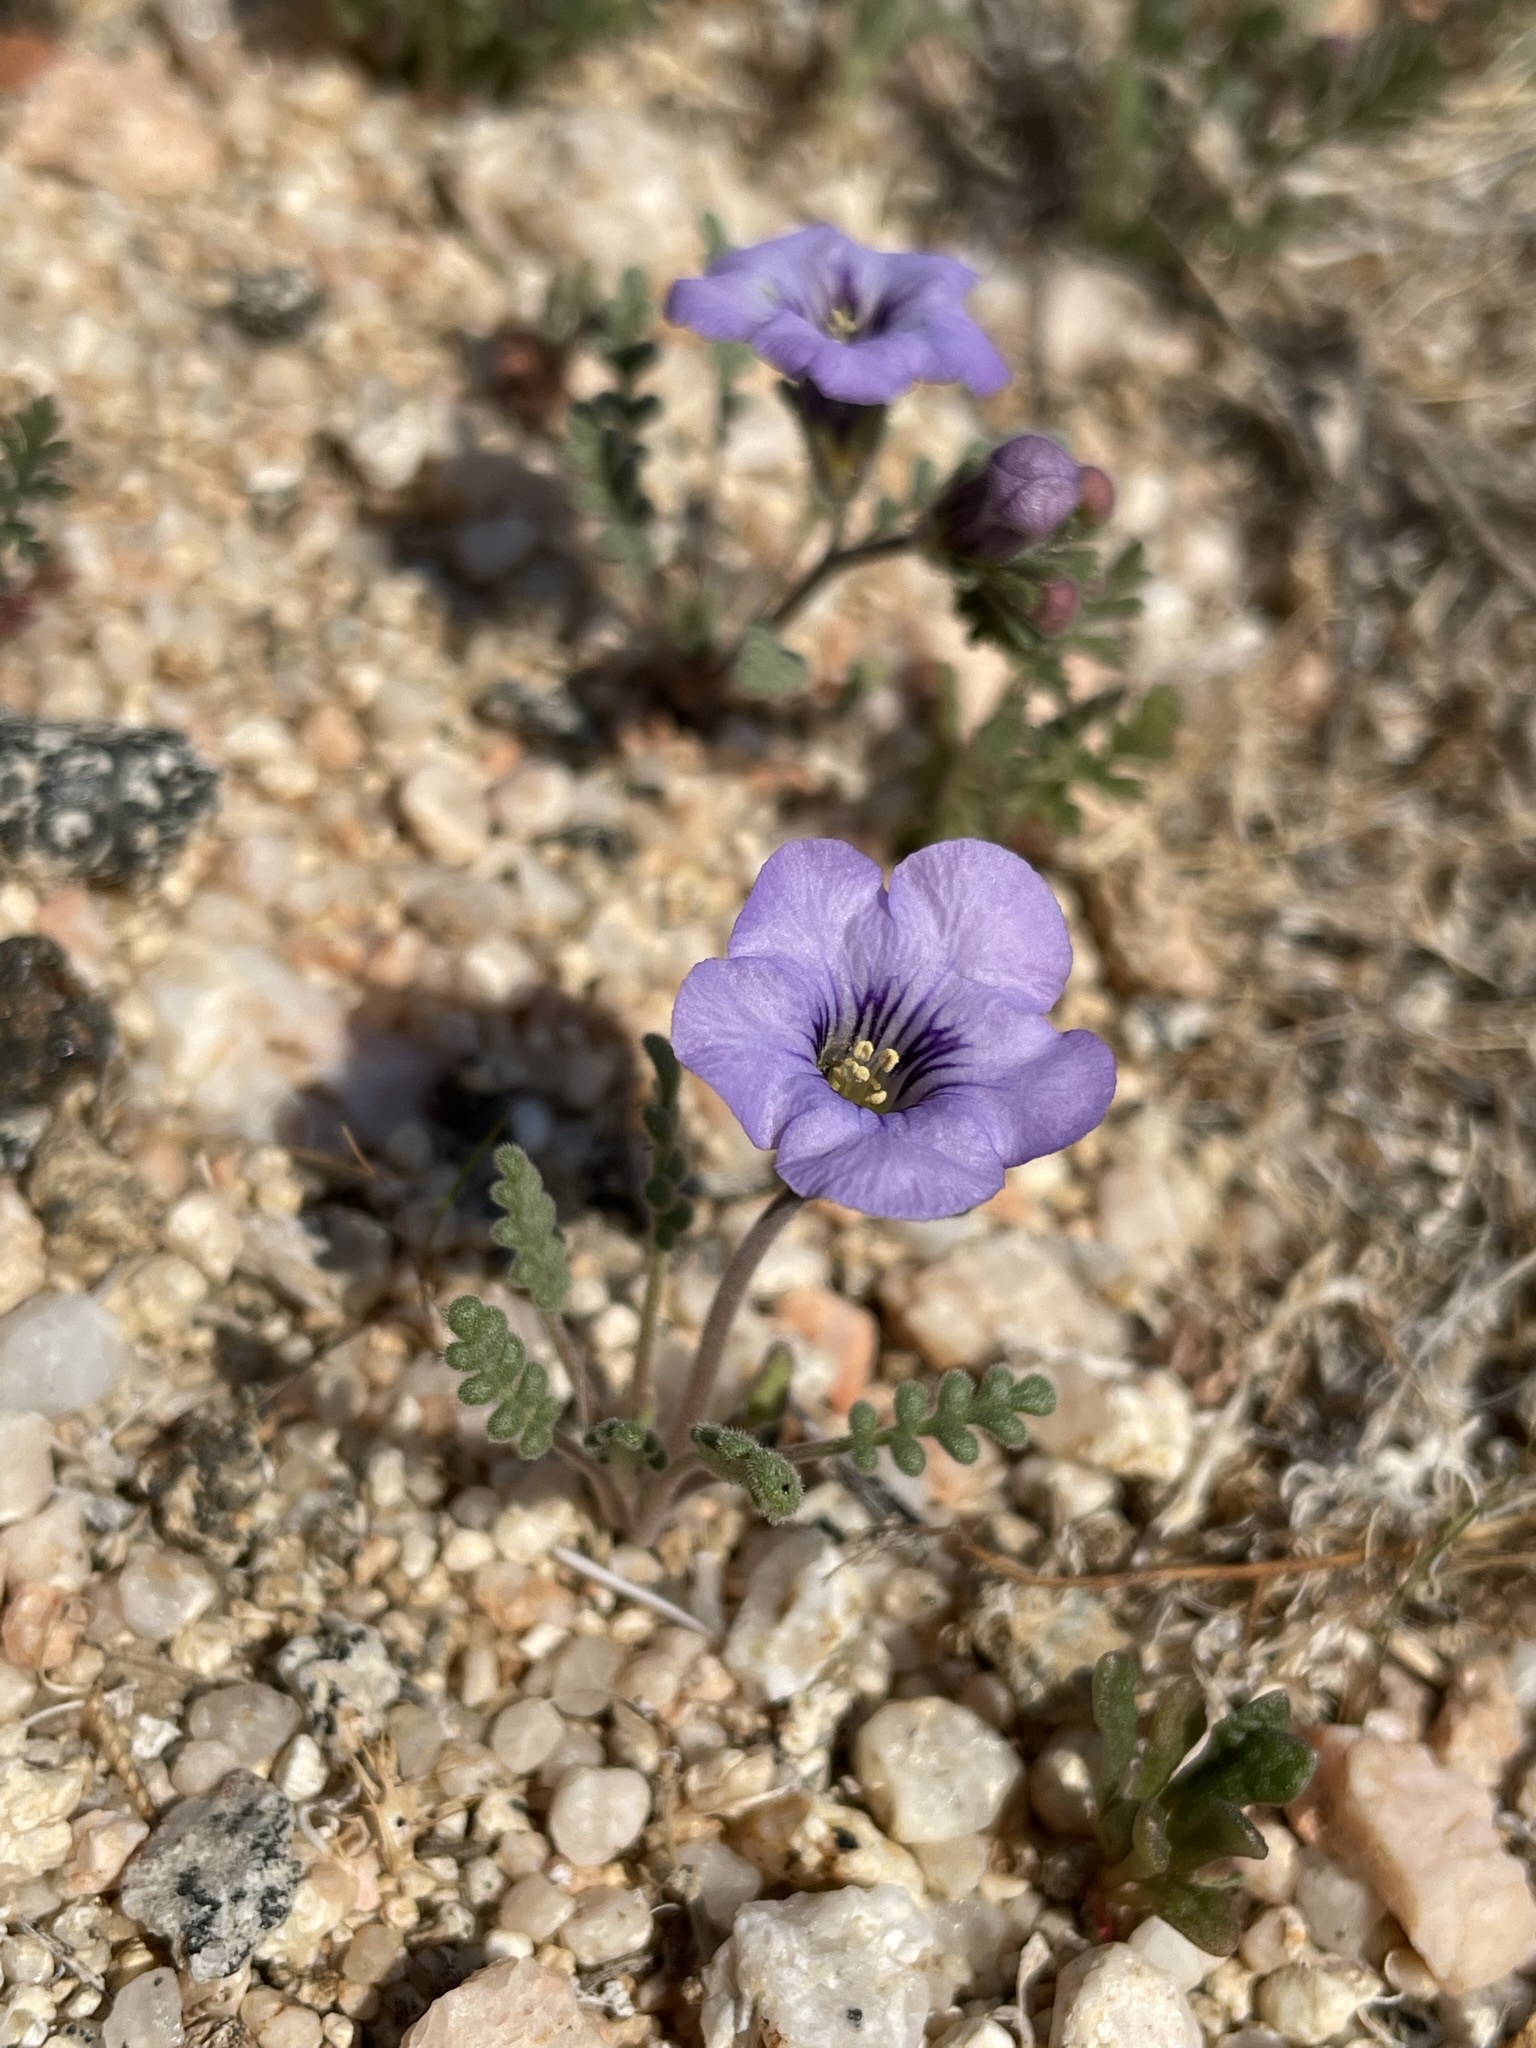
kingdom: Plantae
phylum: Tracheophyta
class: Magnoliopsida
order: Boraginales
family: Hydrophyllaceae
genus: Phacelia
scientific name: Phacelia fremontii
